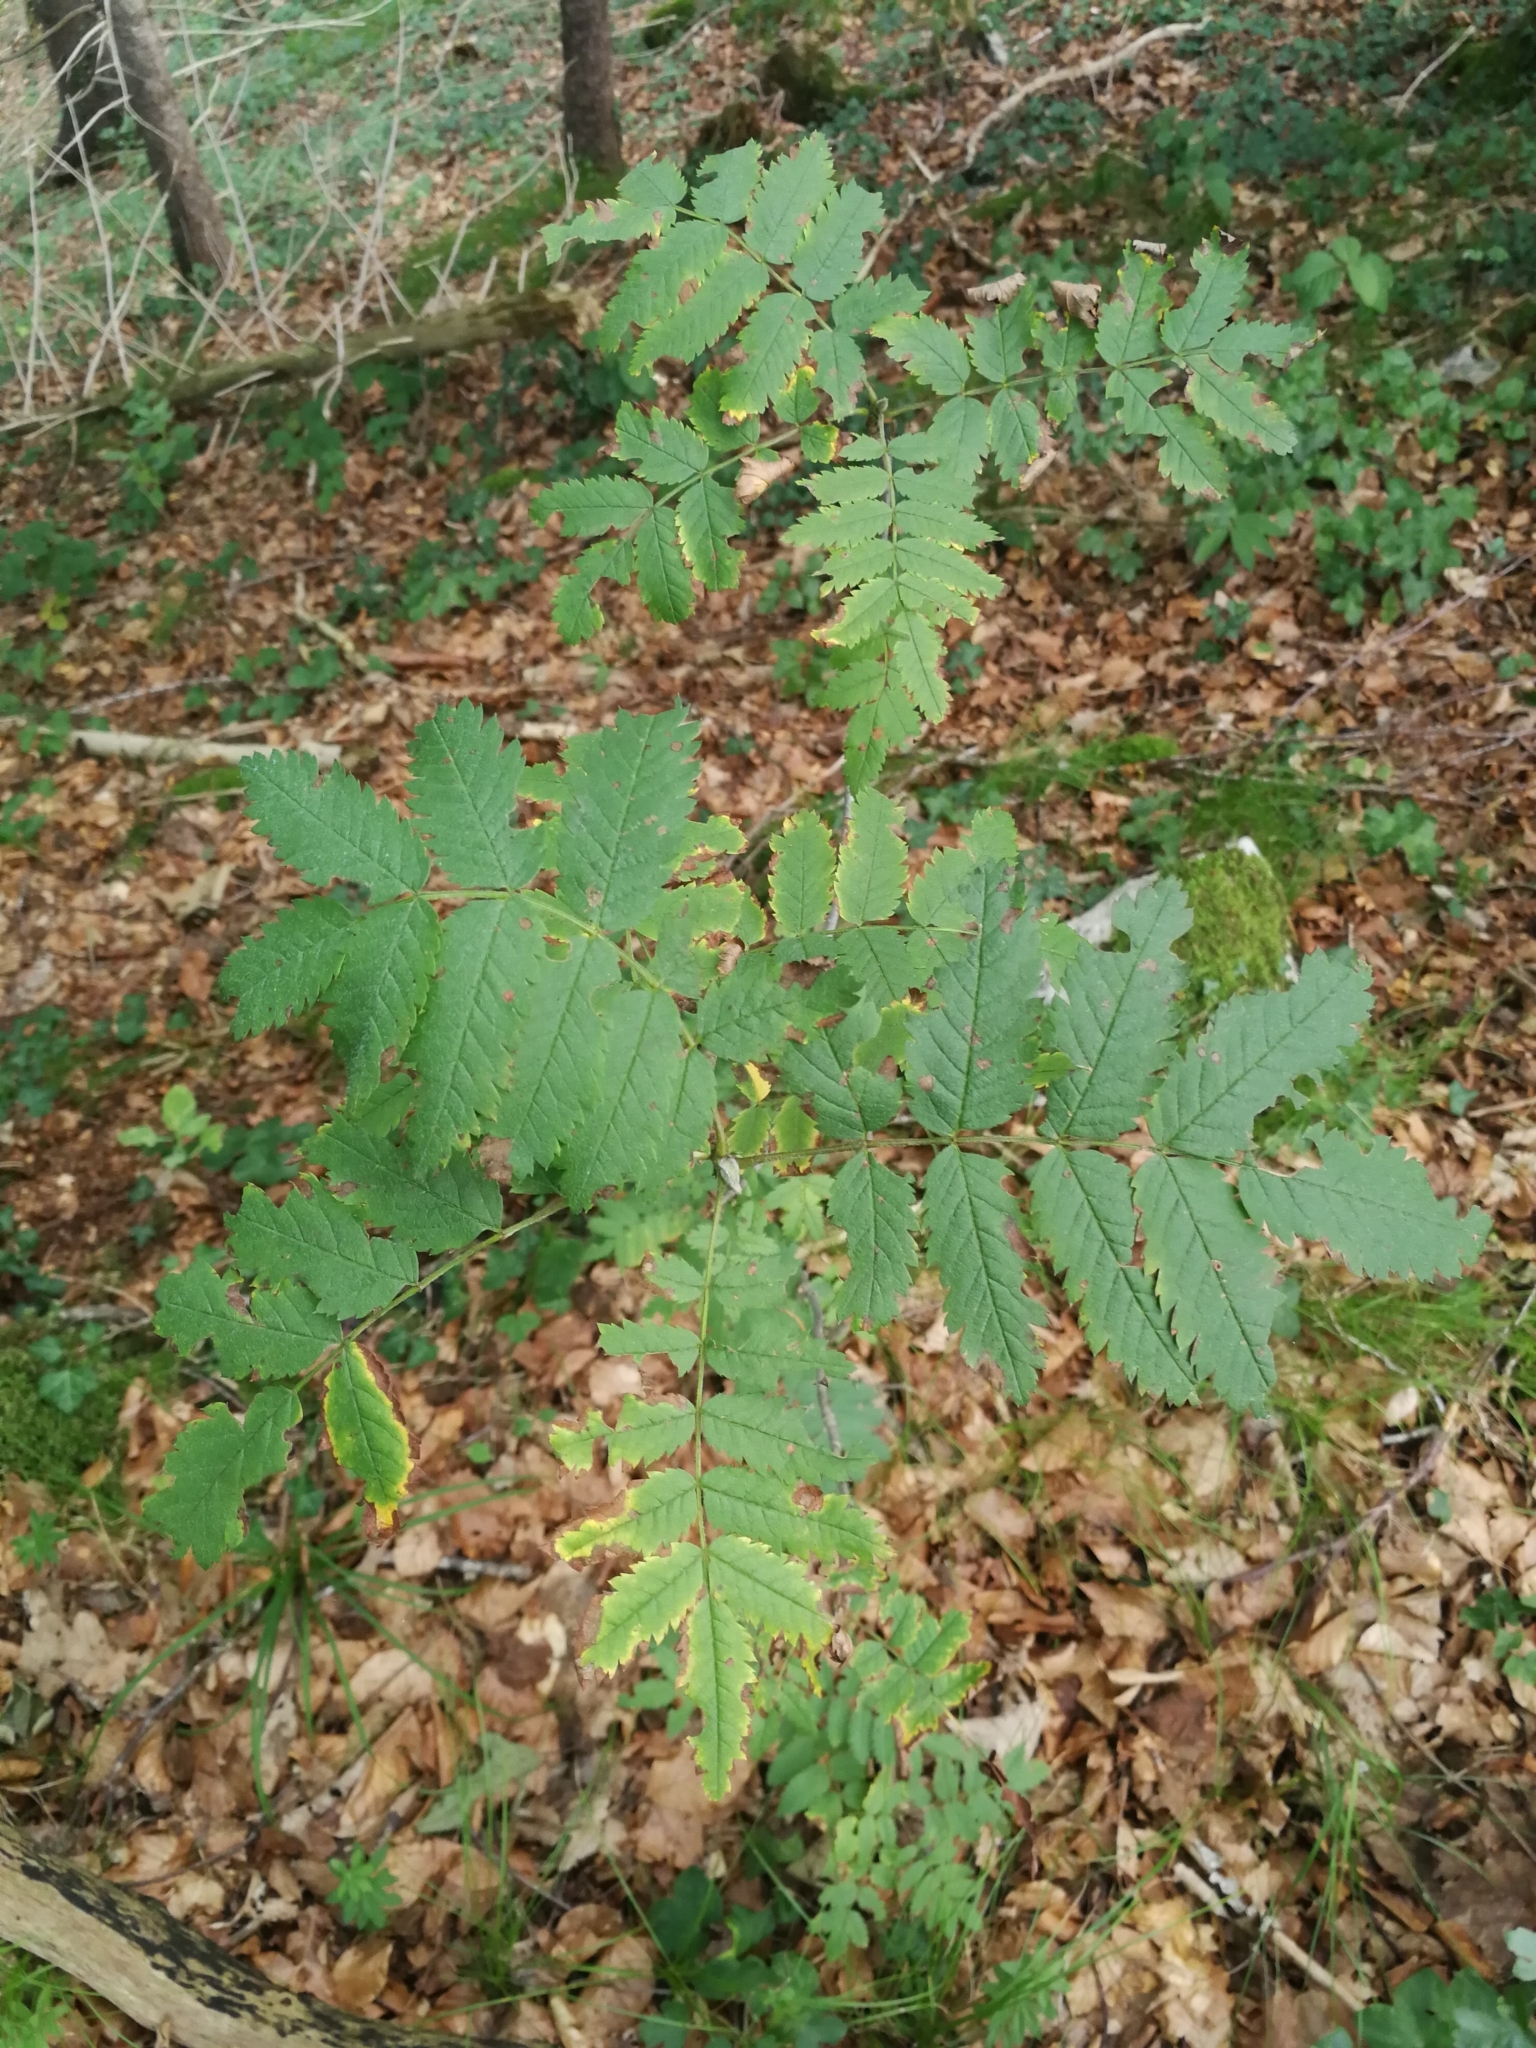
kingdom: Plantae
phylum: Tracheophyta
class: Magnoliopsida
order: Rosales
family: Rosaceae
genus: Sorbus
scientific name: Sorbus aucuparia
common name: Rowan
